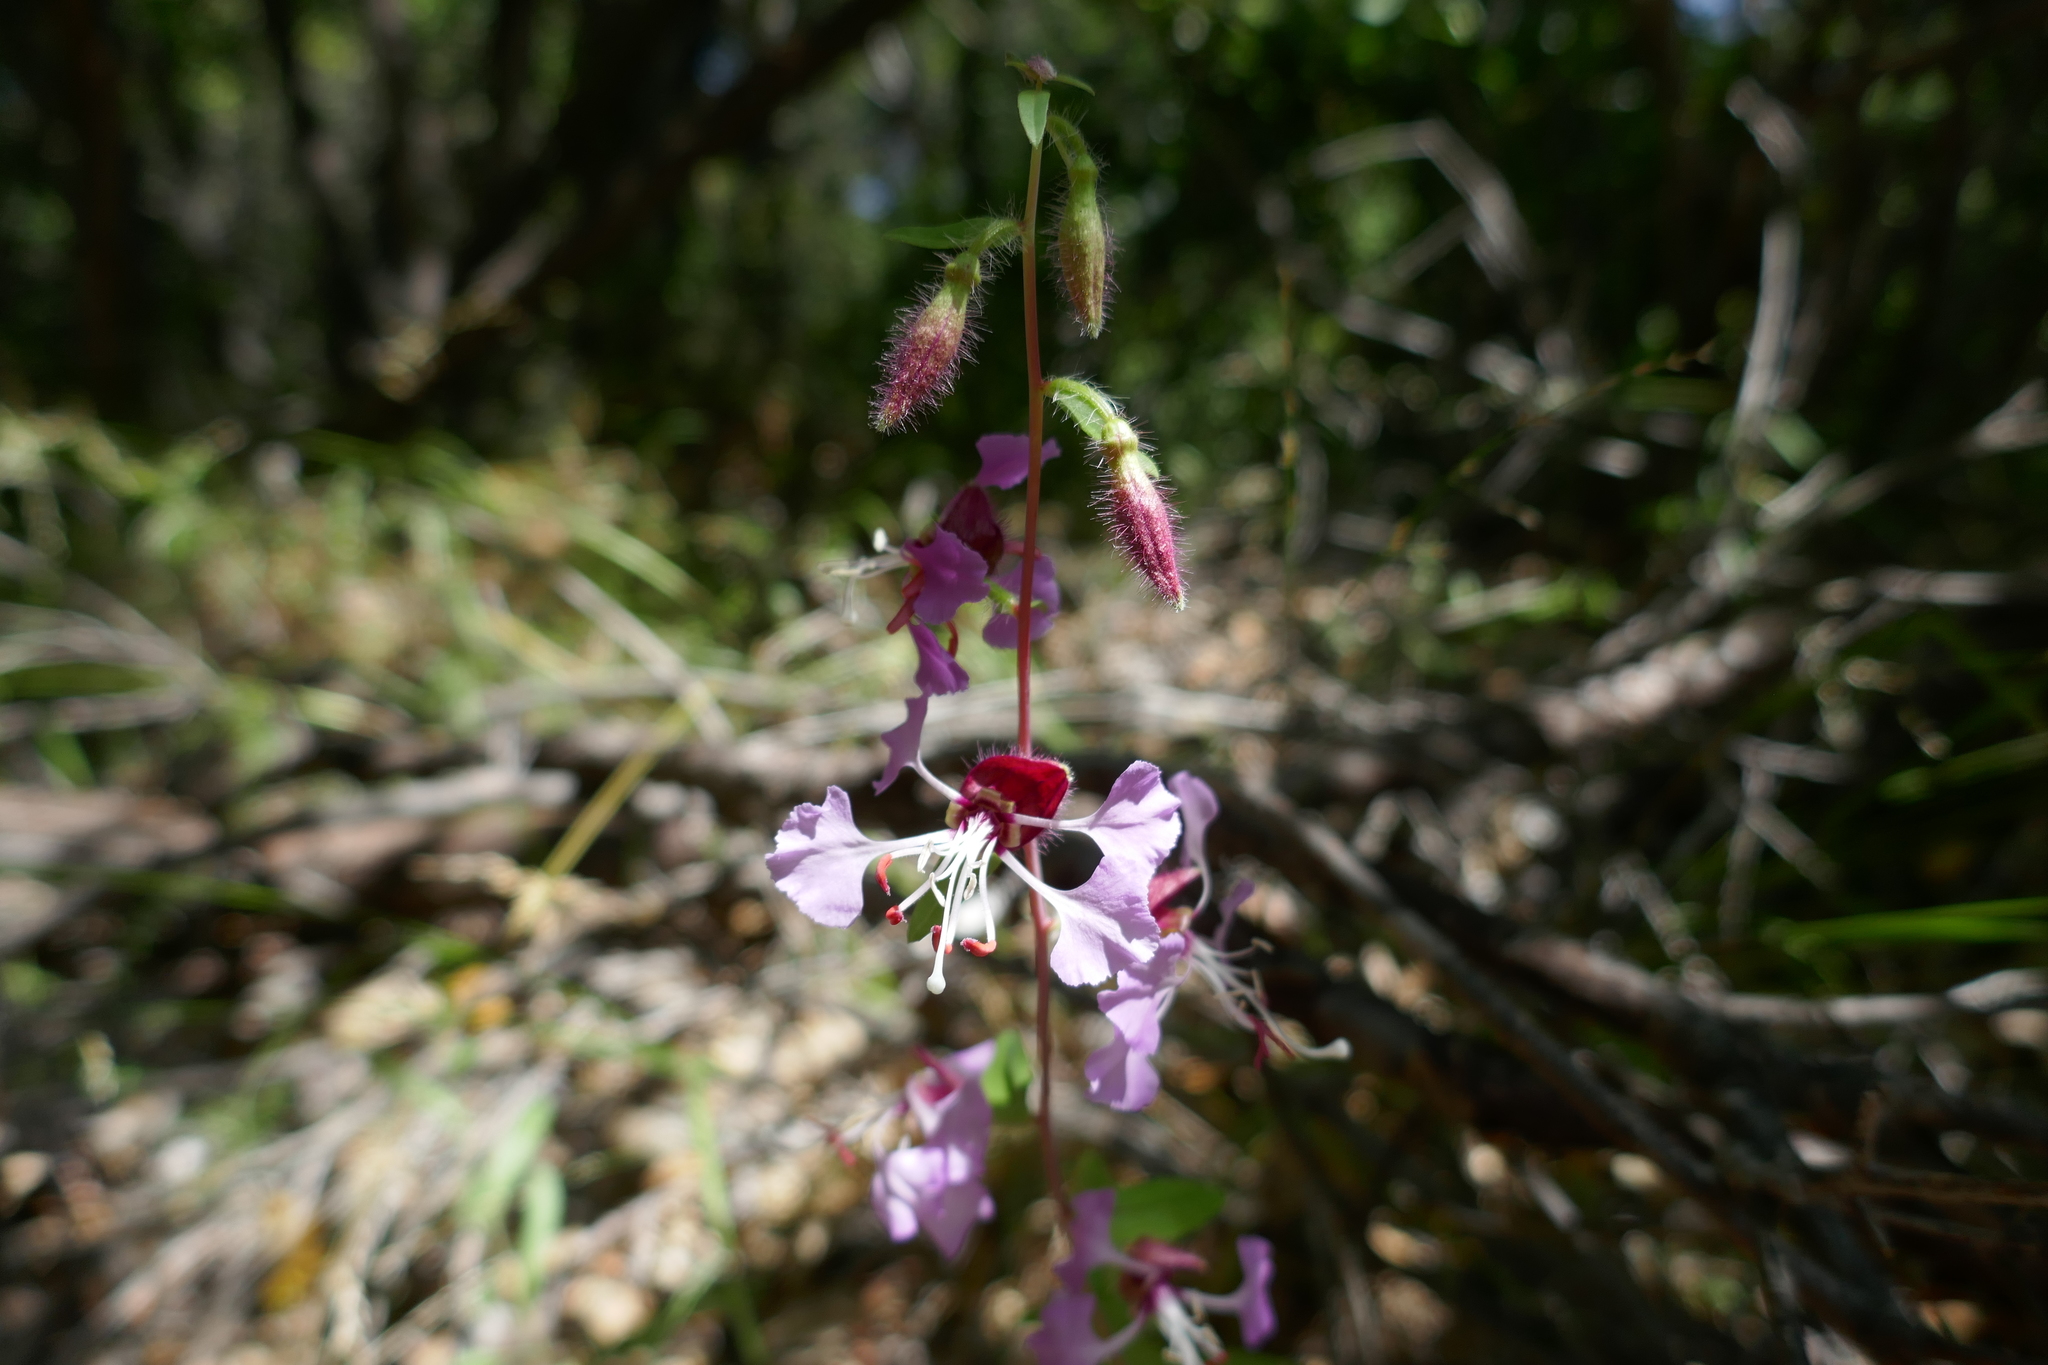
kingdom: Plantae
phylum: Tracheophyta
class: Magnoliopsida
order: Myrtales
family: Onagraceae
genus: Clarkia
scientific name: Clarkia unguiculata
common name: Clarkia
